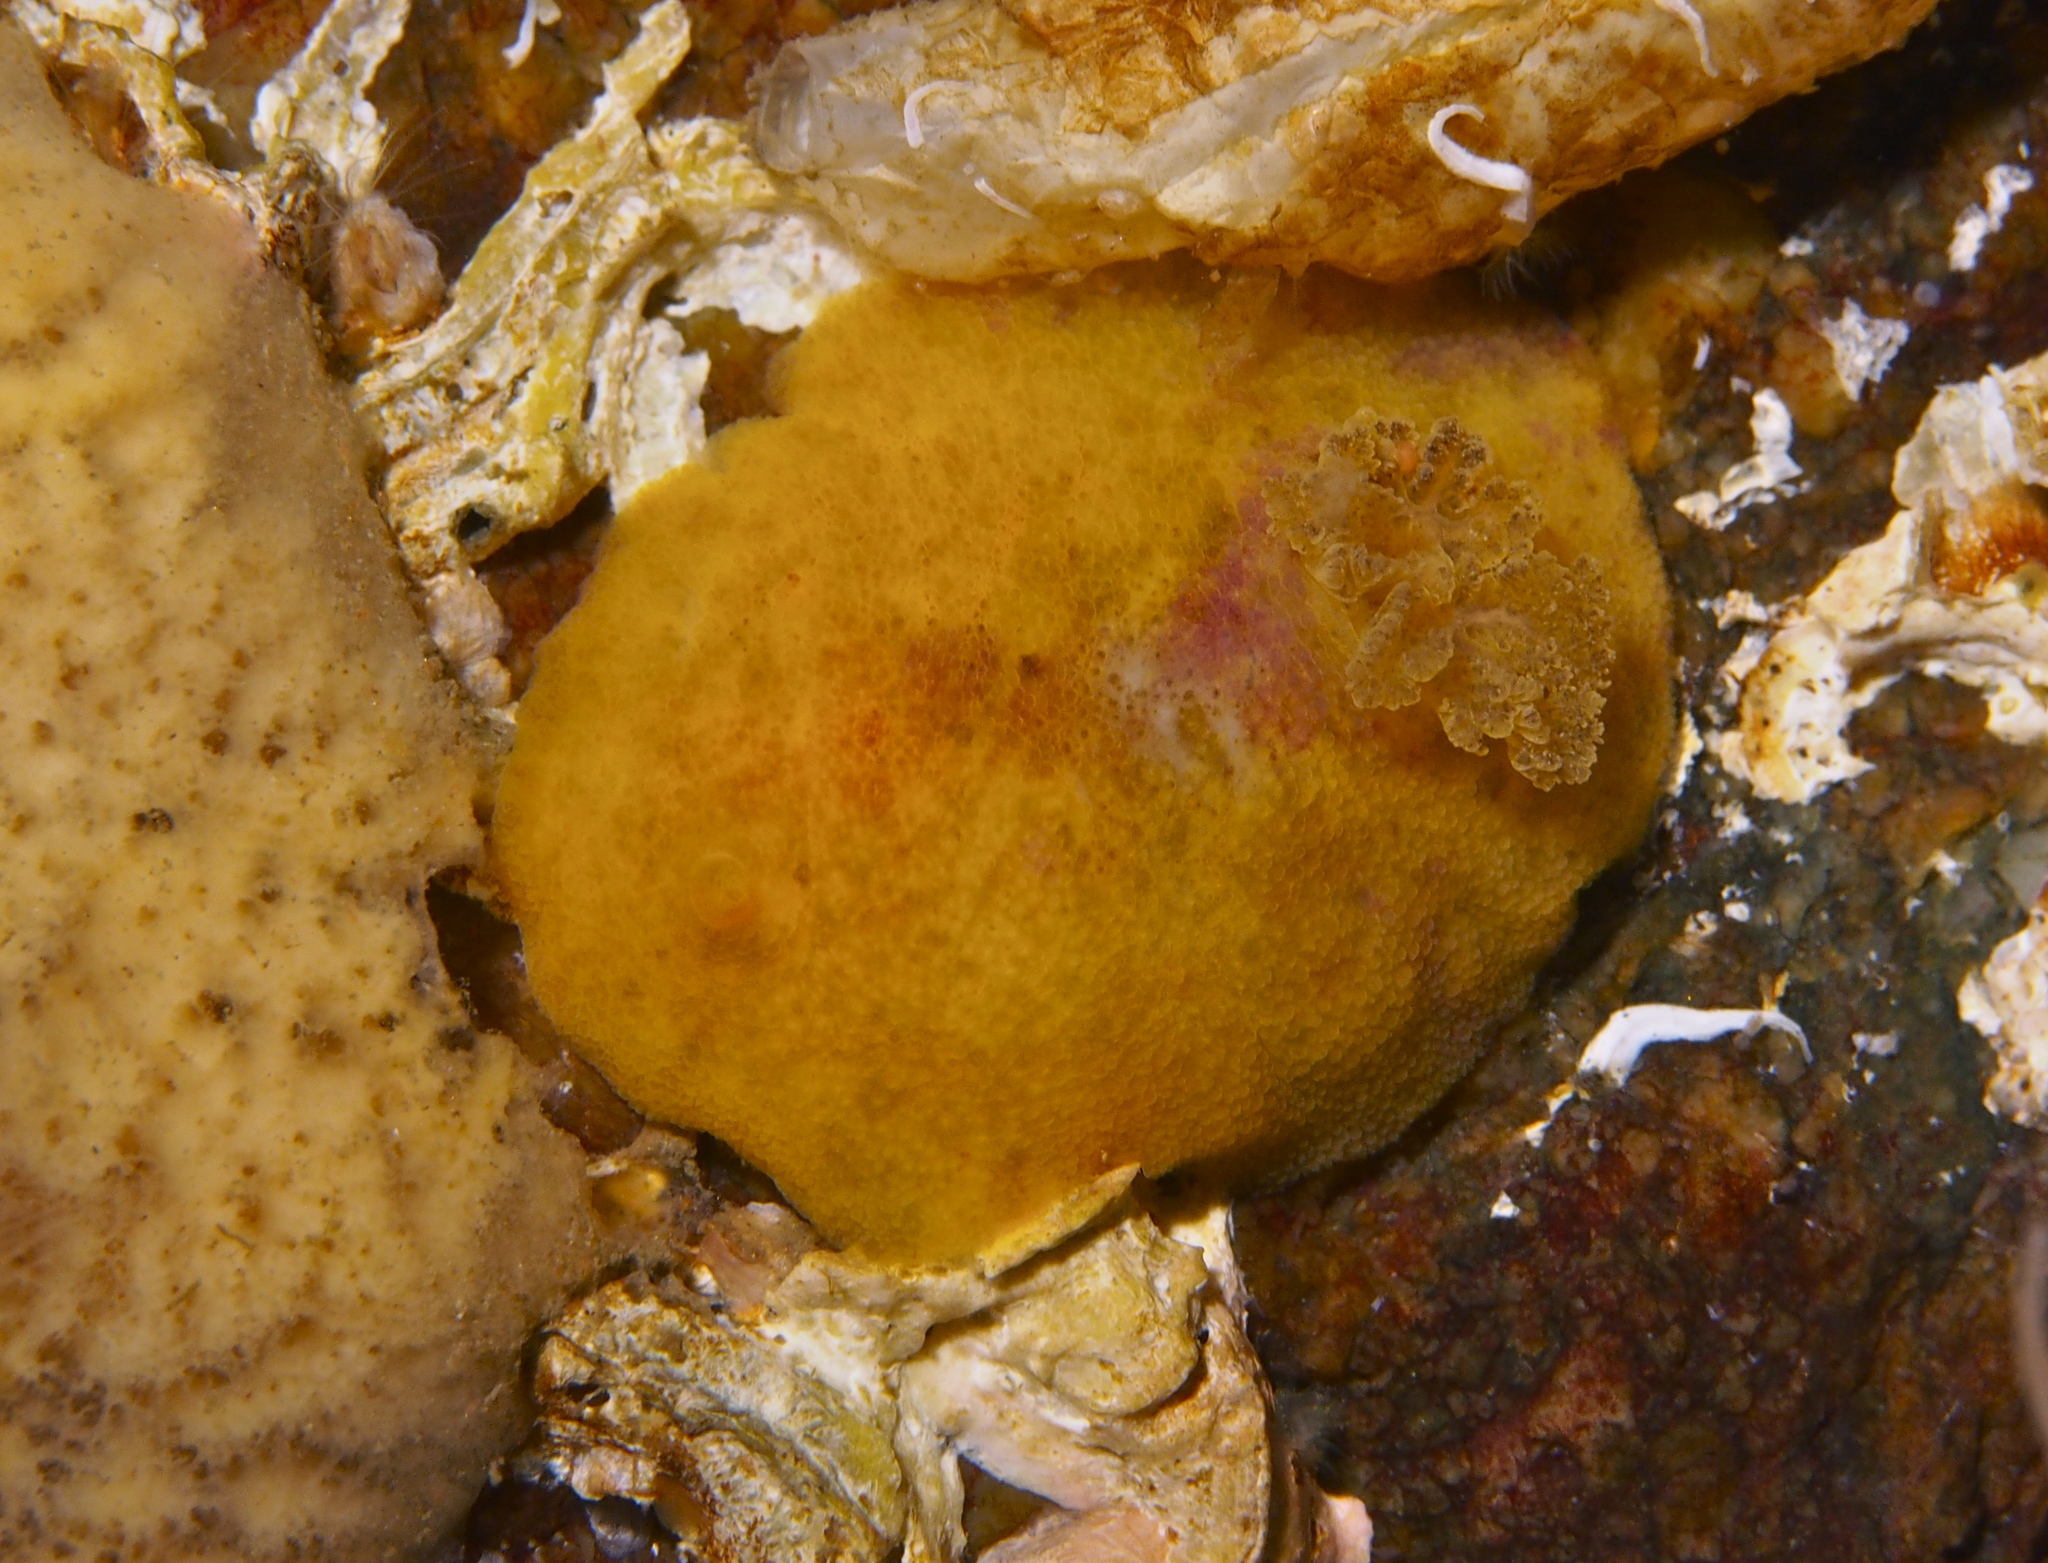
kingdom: Animalia
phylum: Mollusca
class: Gastropoda
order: Nudibranchia
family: Dorididae
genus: Doris
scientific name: Doris pseudoargus
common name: Sea lemon
